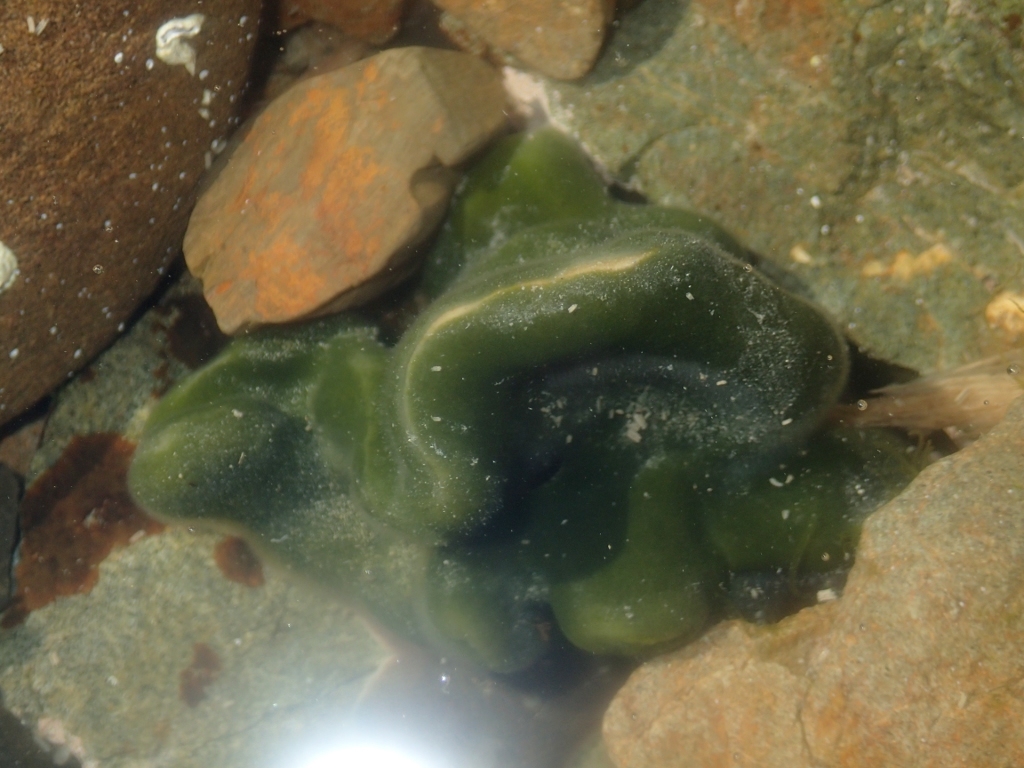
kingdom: Plantae
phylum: Chlorophyta
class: Ulvophyceae
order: Bryopsidales
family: Codiaceae
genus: Codium
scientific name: Codium convolutum
